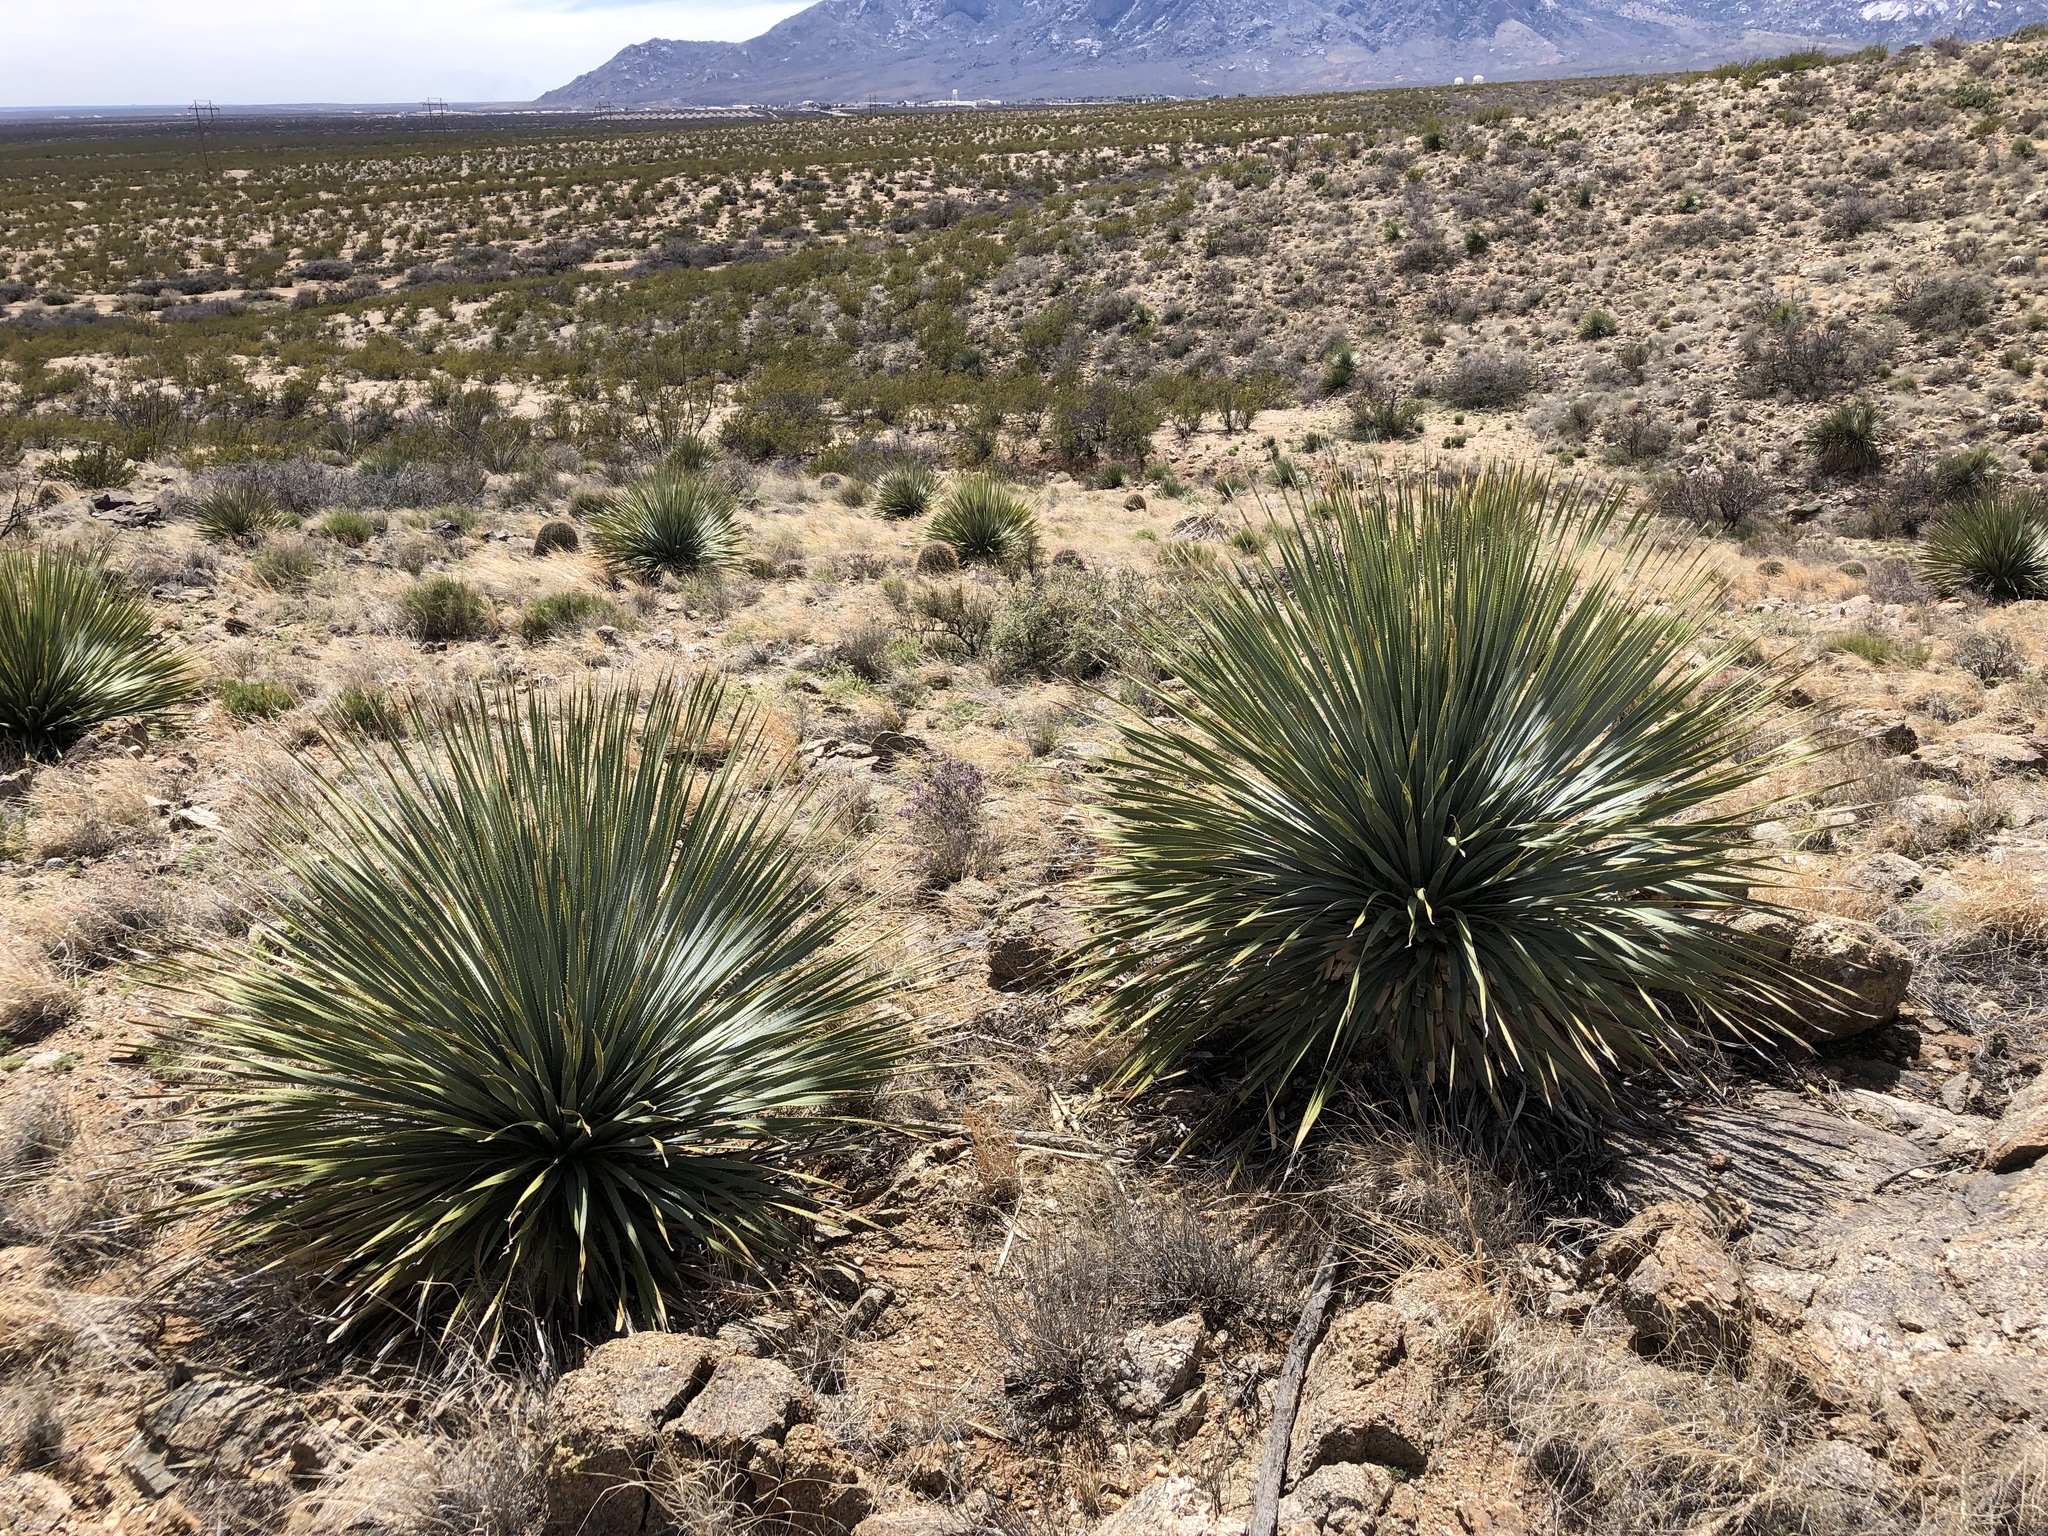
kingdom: Plantae
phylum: Tracheophyta
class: Liliopsida
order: Asparagales
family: Asparagaceae
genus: Dasylirion
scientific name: Dasylirion wheeleri
